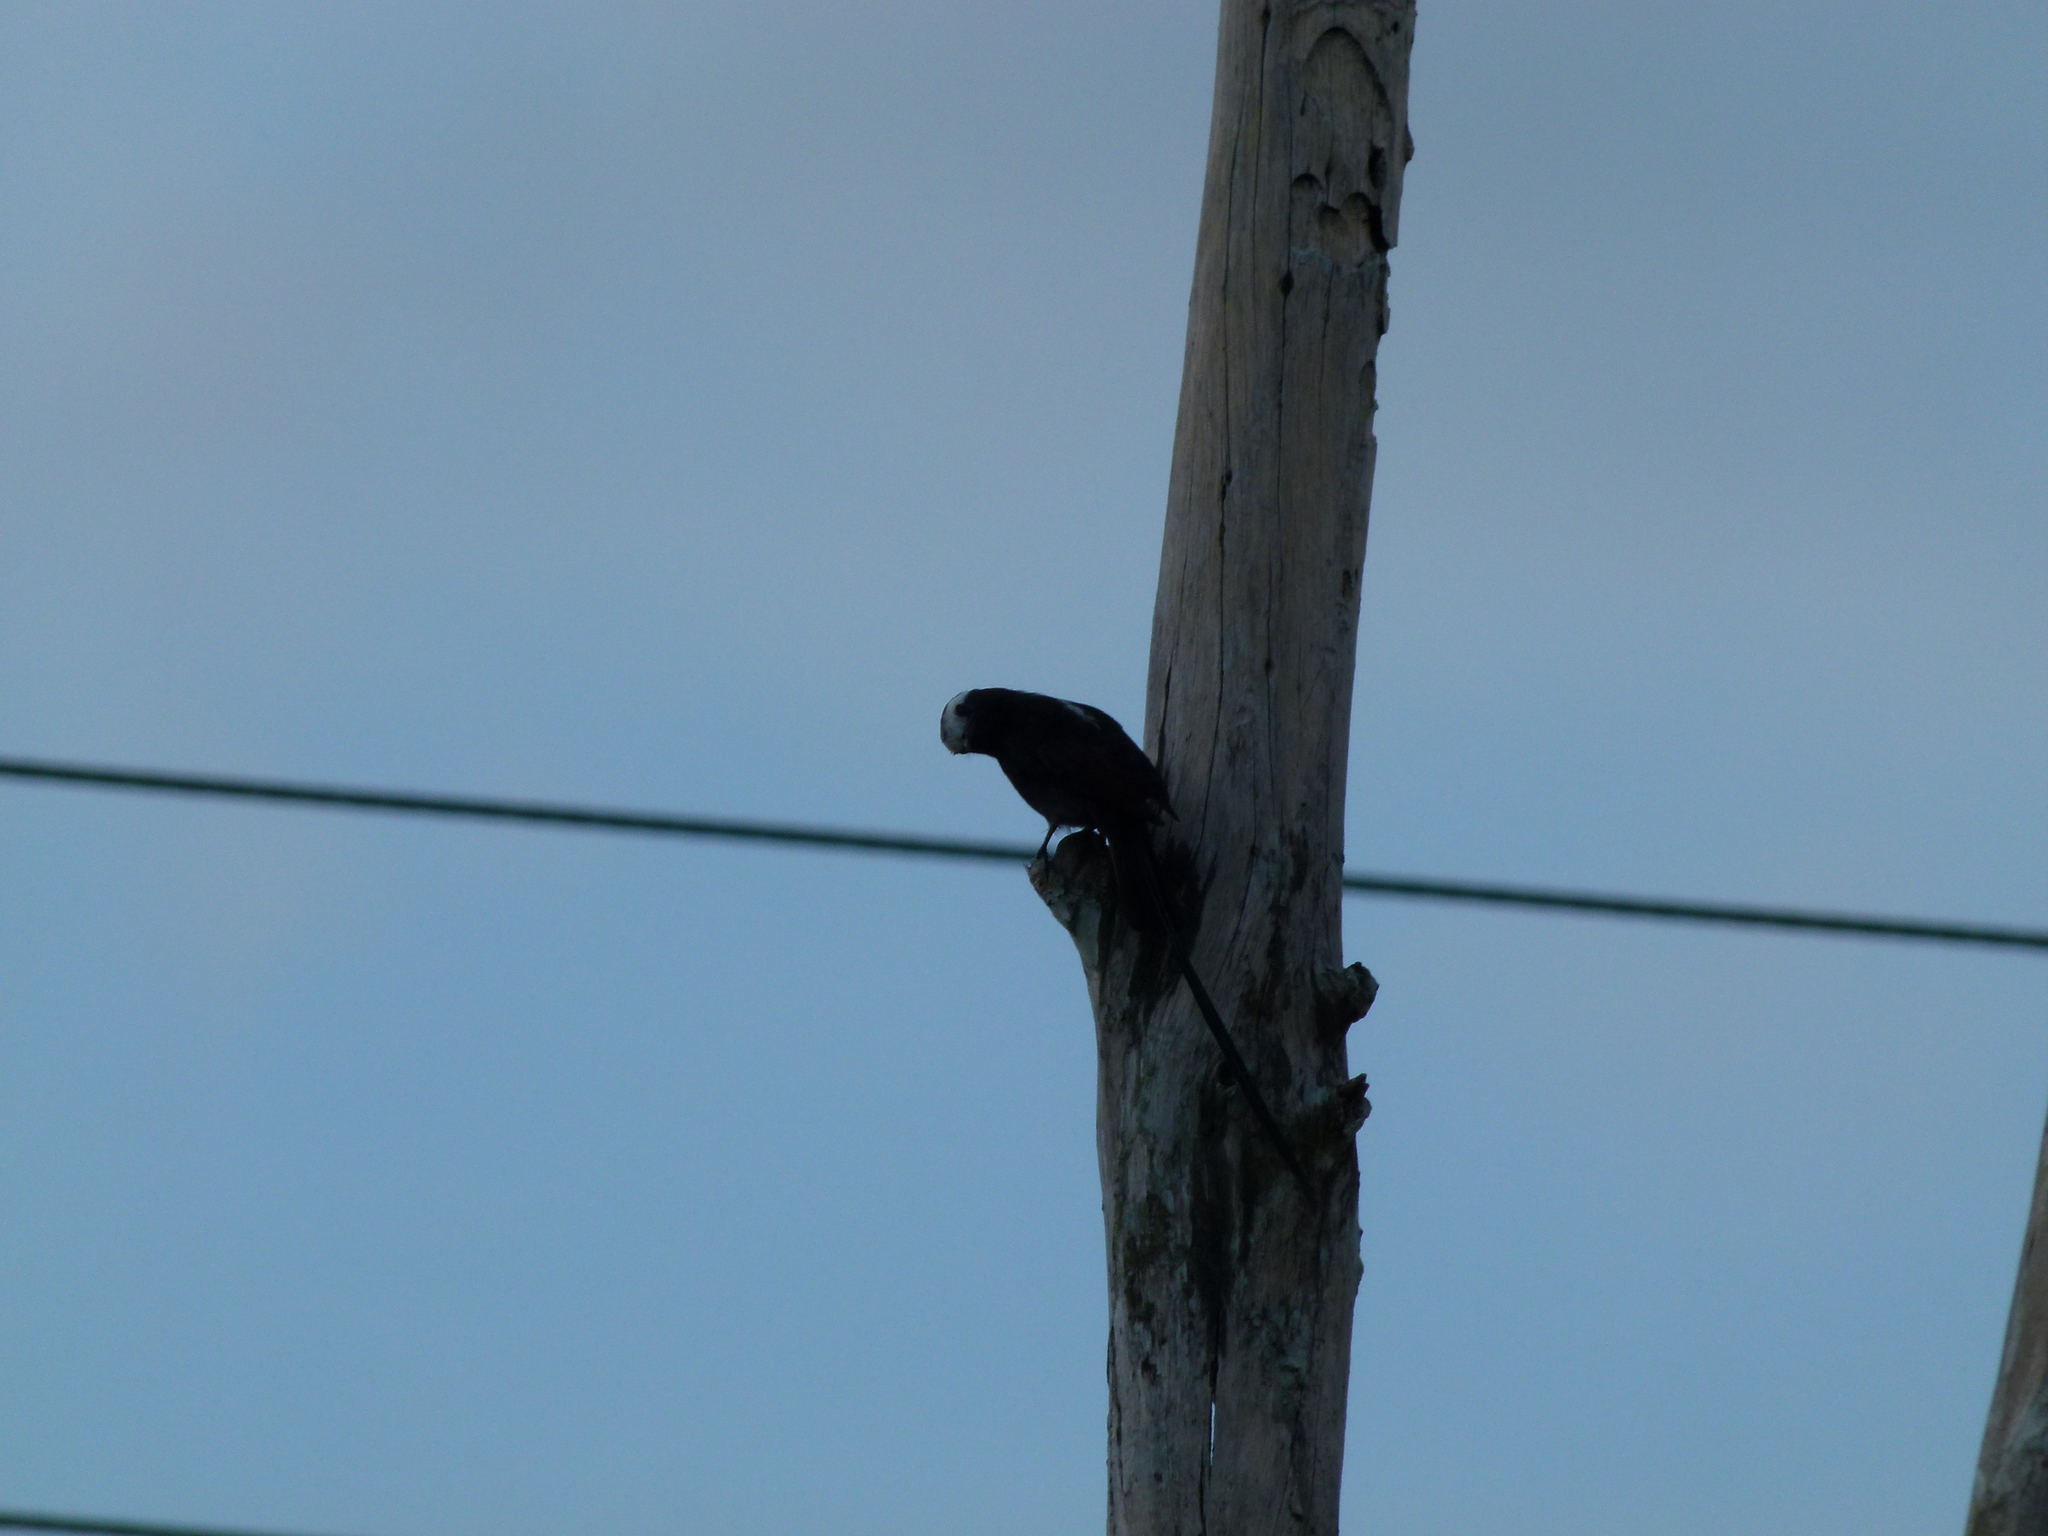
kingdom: Animalia
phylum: Chordata
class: Aves
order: Passeriformes
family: Tyrannidae
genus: Colonia
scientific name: Colonia colonus
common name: Long-tailed tyrant
